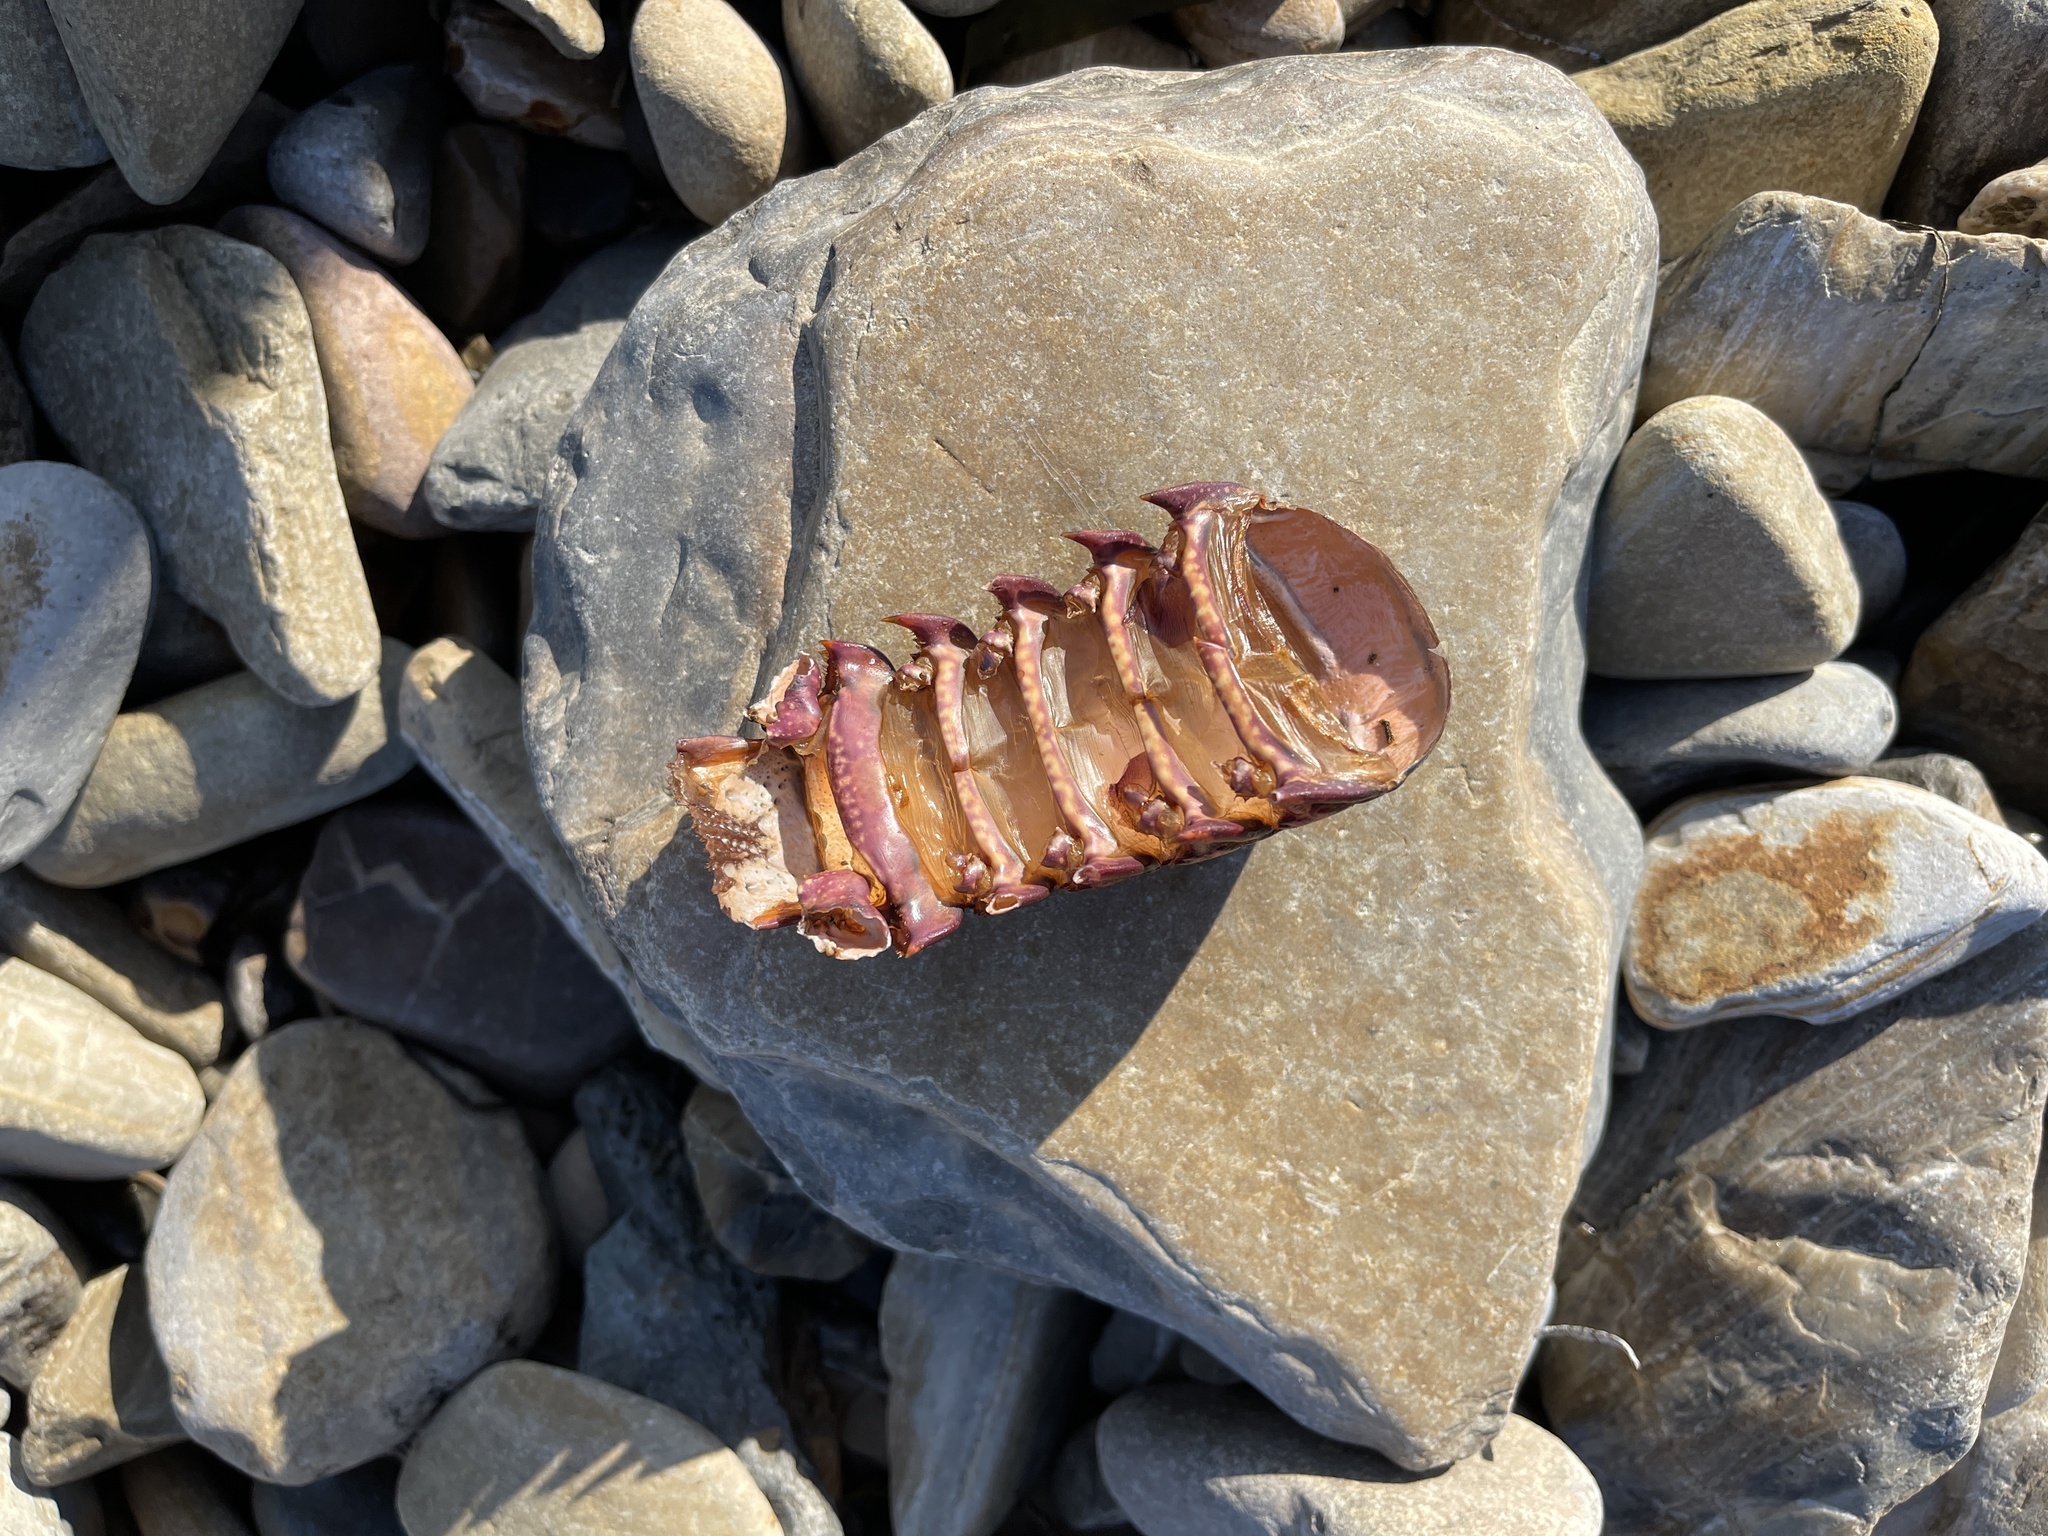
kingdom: Animalia
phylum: Arthropoda
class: Malacostraca
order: Decapoda
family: Palinuridae
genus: Panulirus
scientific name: Panulirus interruptus
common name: California spiny lobster
